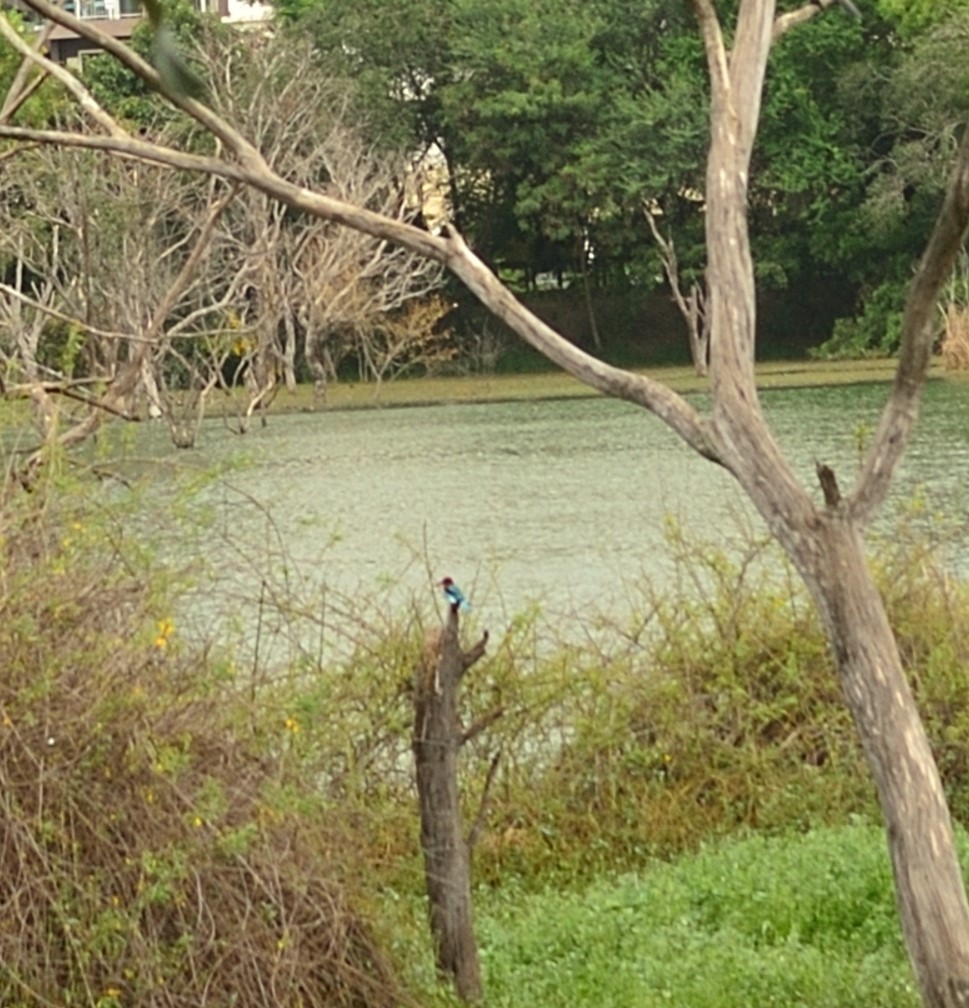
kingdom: Animalia
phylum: Chordata
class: Aves
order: Coraciiformes
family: Alcedinidae
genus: Halcyon
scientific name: Halcyon smyrnensis
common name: White-throated kingfisher
